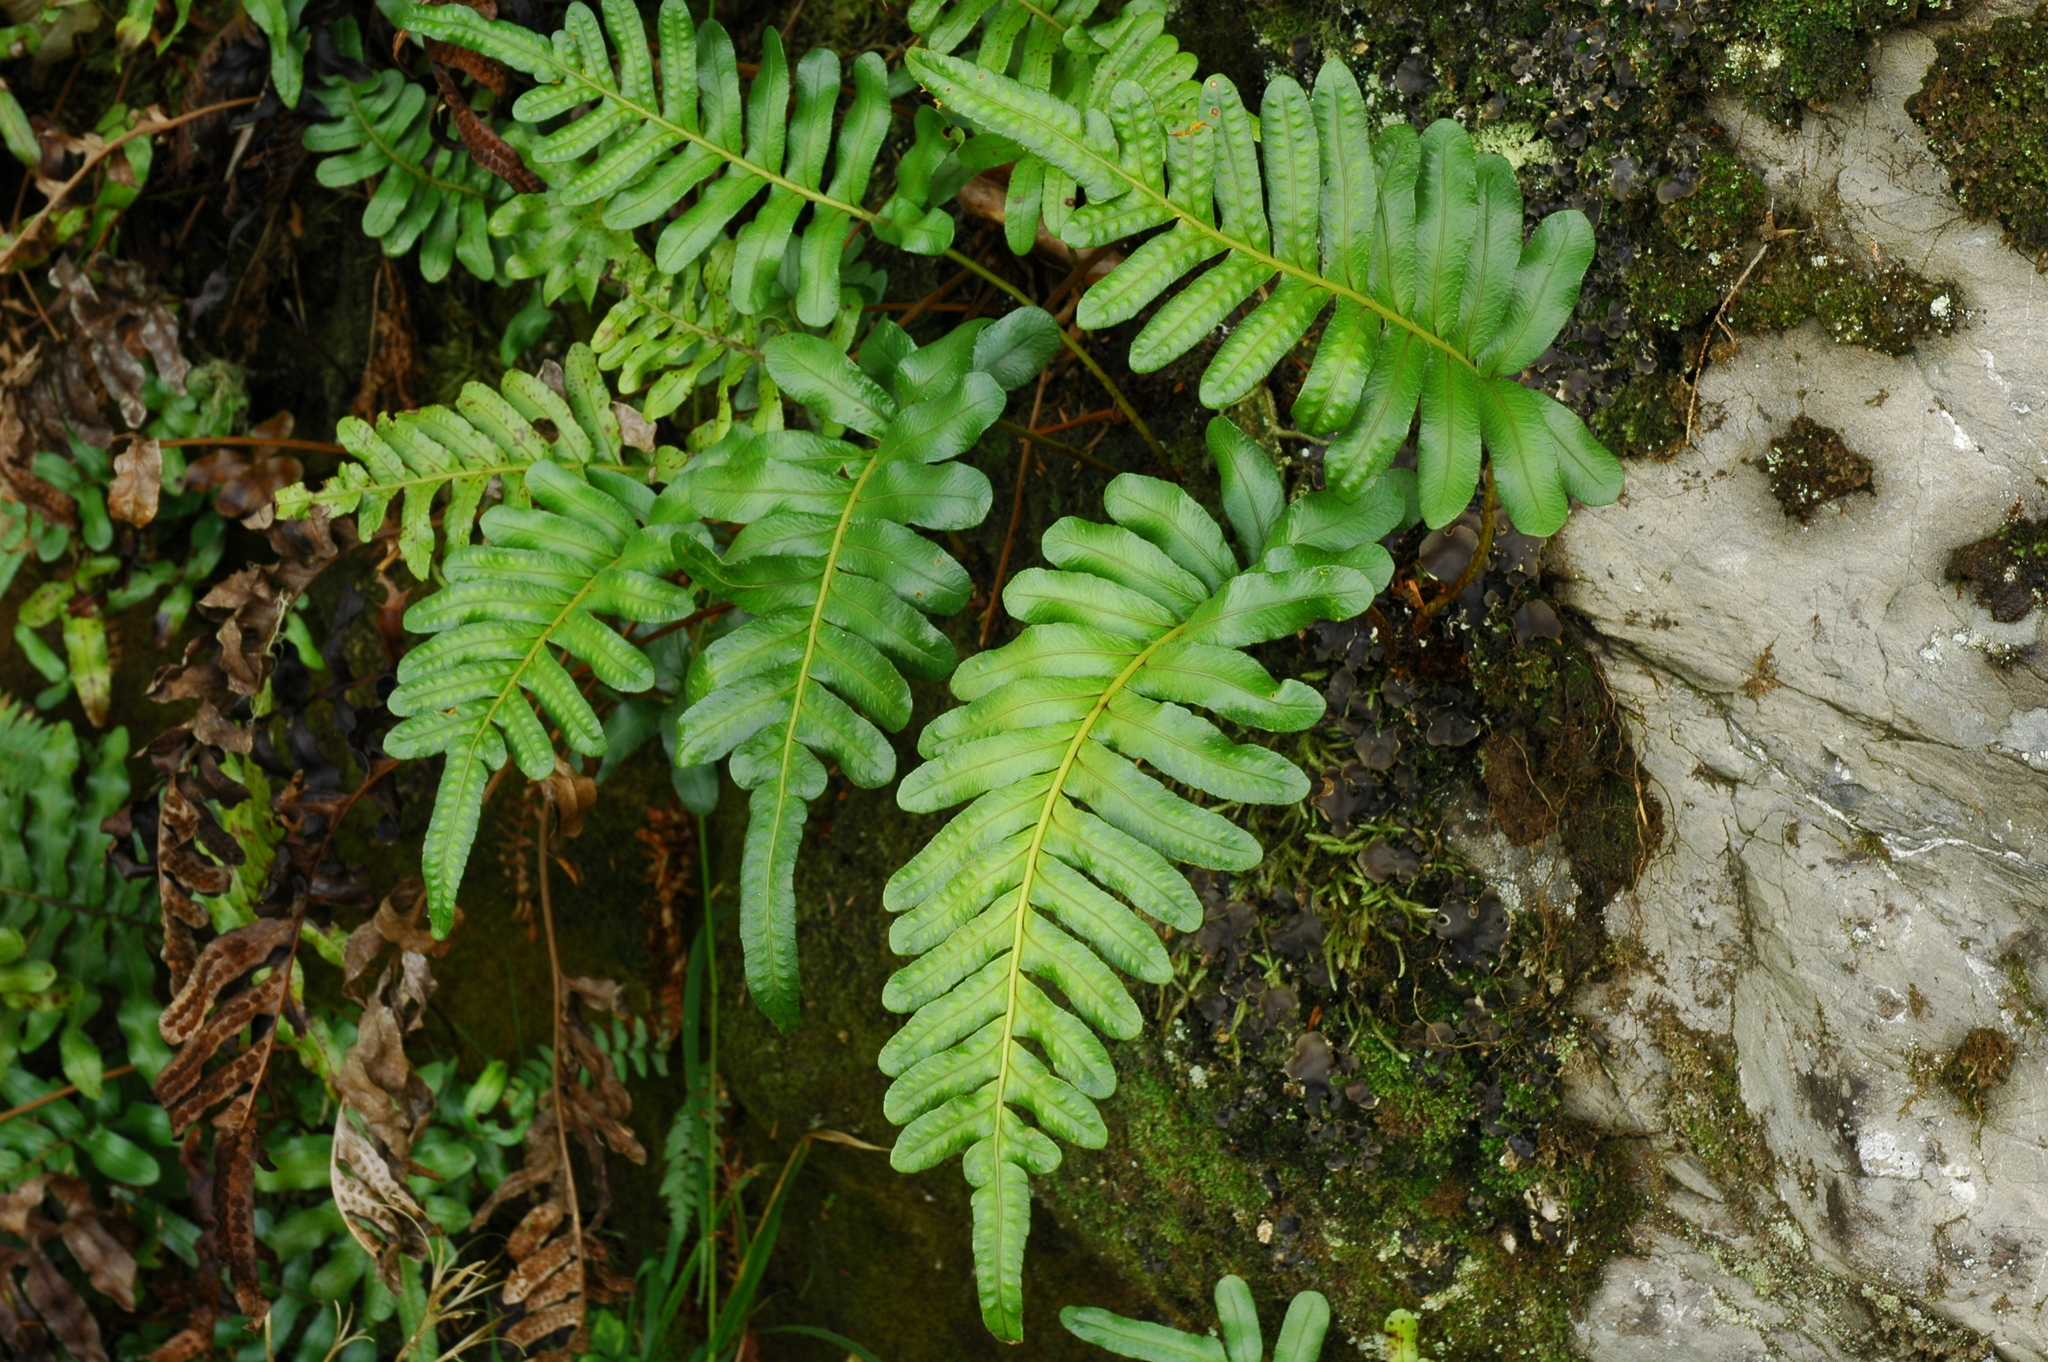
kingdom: Plantae
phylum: Tracheophyta
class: Polypodiopsida
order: Polypodiales
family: Polypodiaceae
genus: Polypodium
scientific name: Polypodium scouleri
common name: Scouler's polypody
